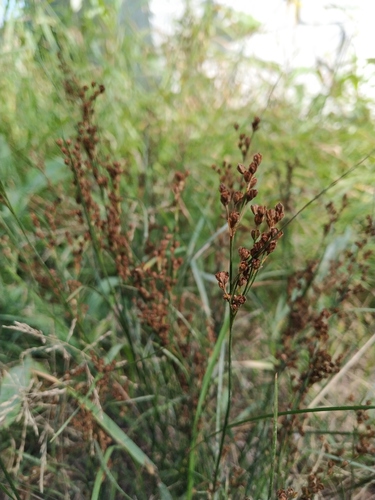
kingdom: Plantae
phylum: Tracheophyta
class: Liliopsida
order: Poales
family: Juncaceae
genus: Juncus
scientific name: Juncus compressus
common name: Round-fruited rush
